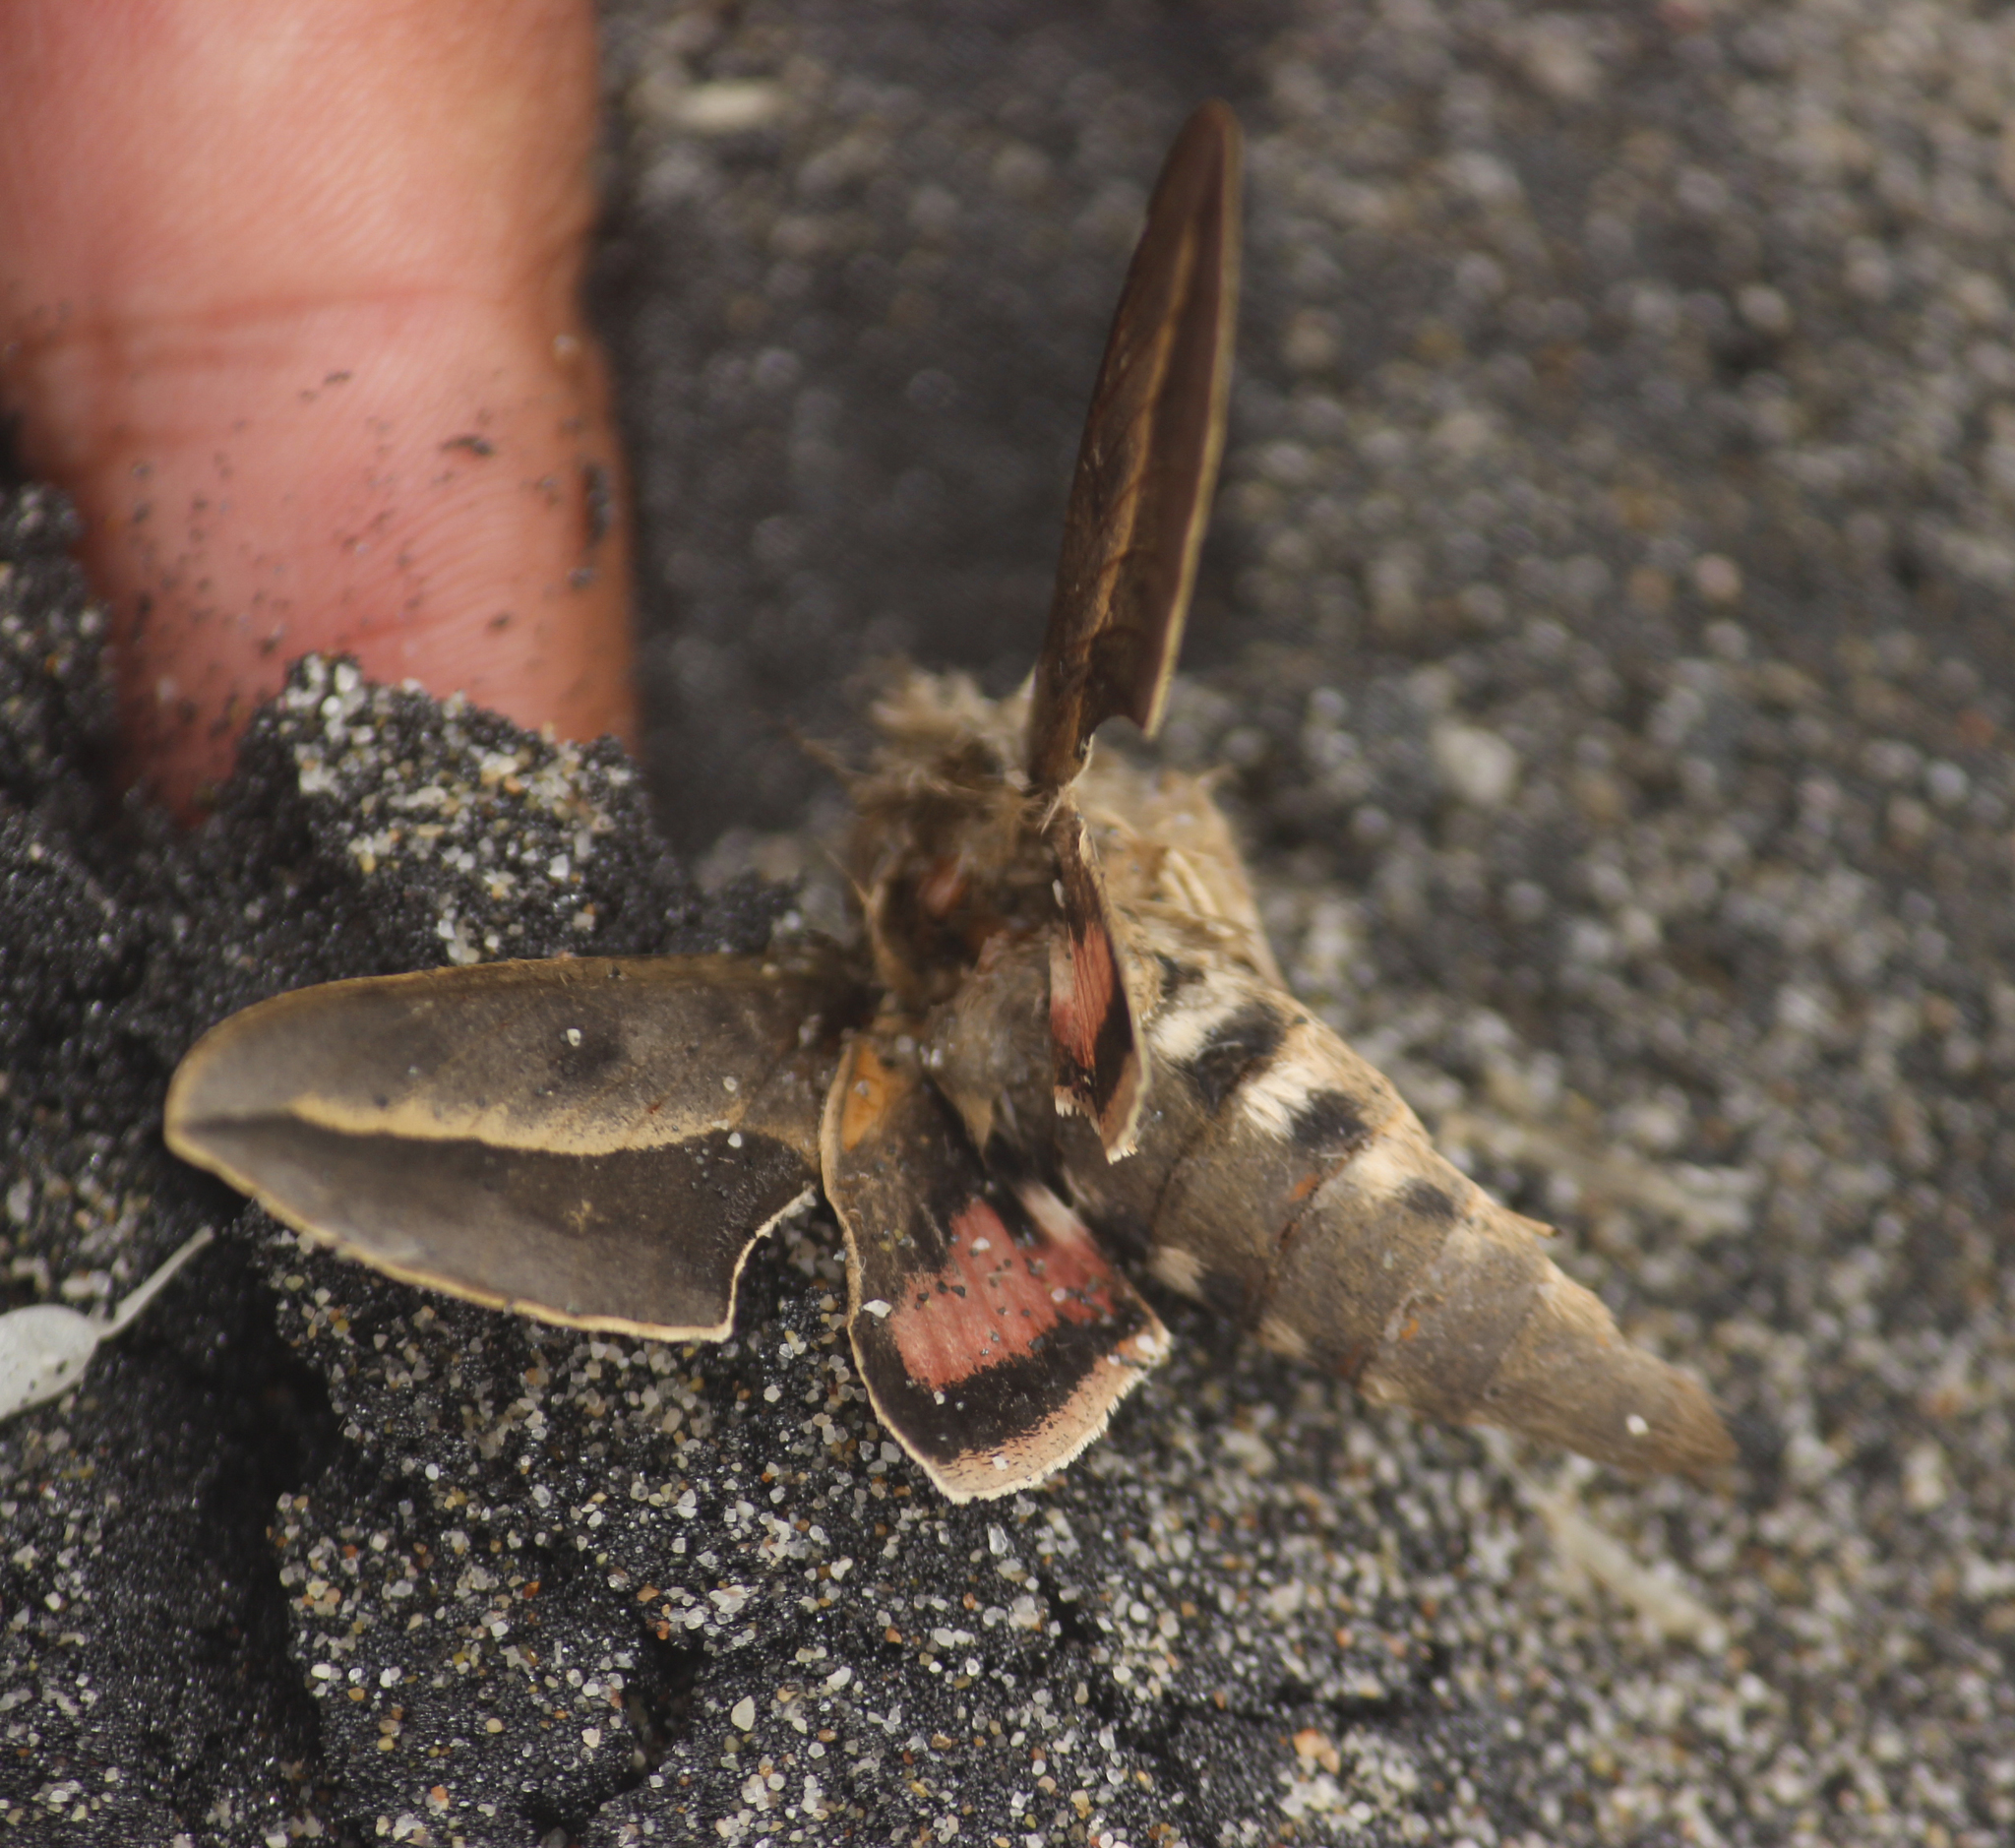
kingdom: Animalia
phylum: Arthropoda
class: Insecta
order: Lepidoptera
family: Sphingidae
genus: Hyles
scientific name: Hyles annei
